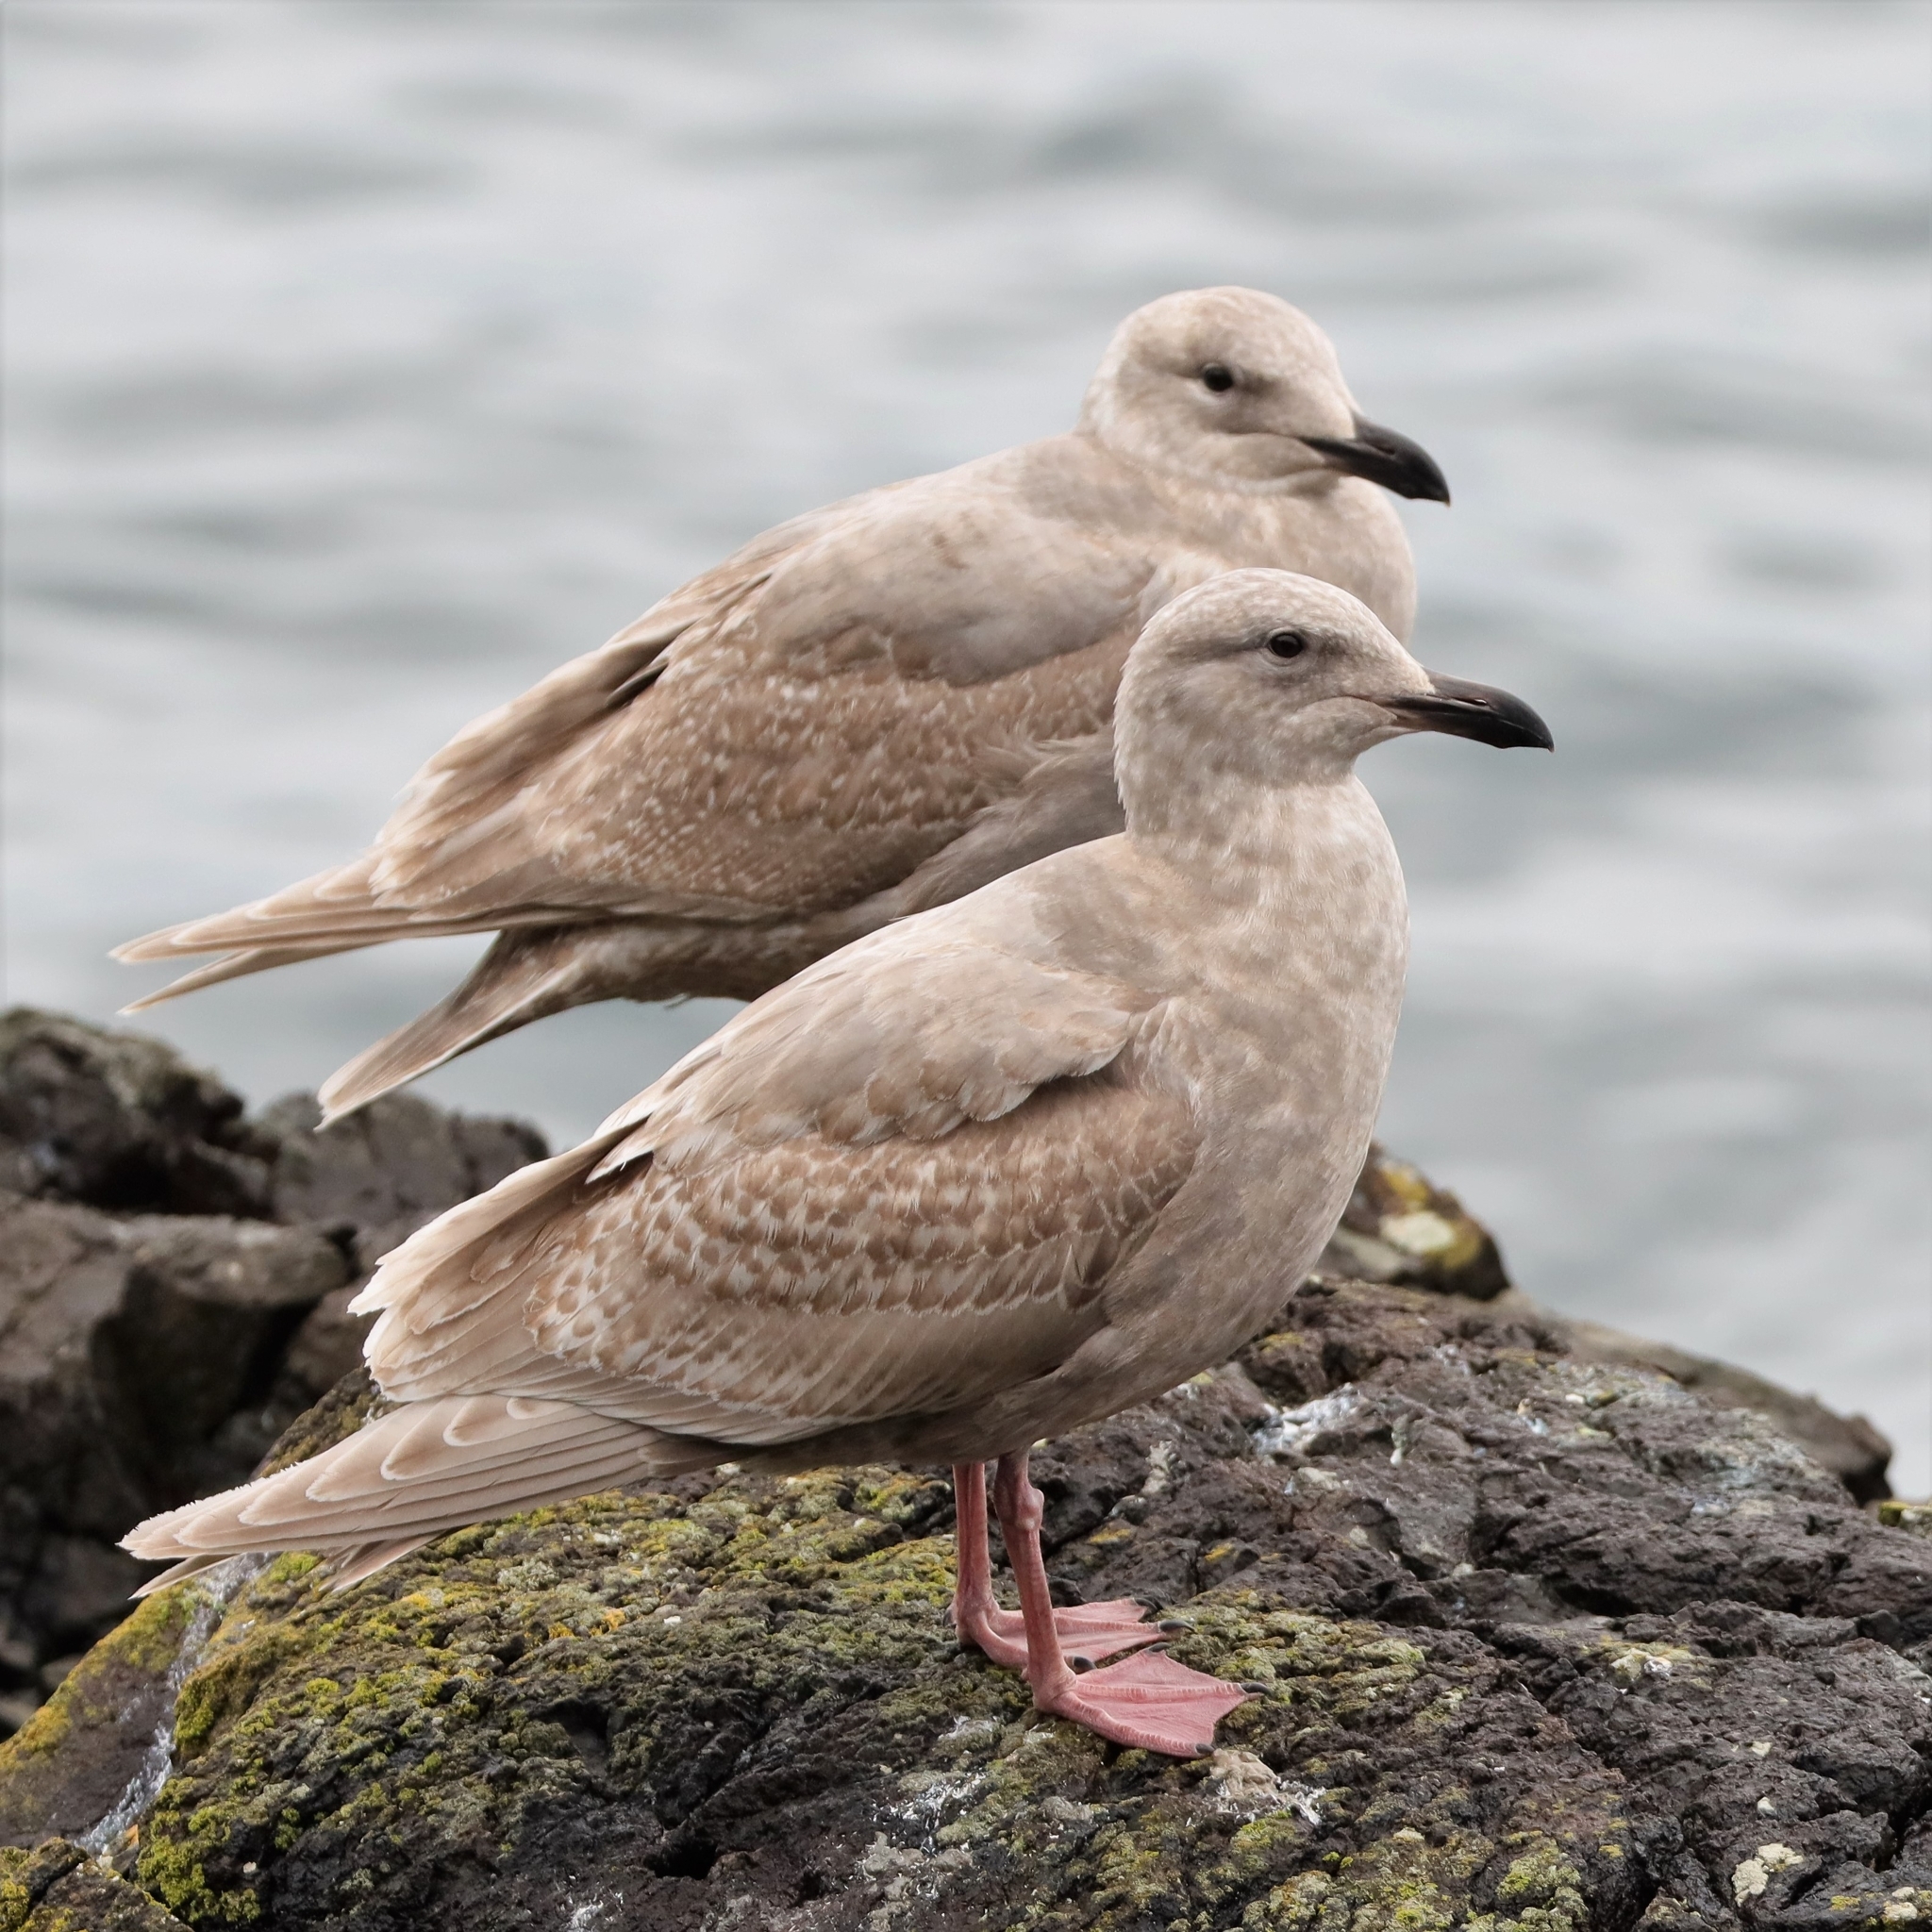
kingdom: Animalia
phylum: Chordata
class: Aves
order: Charadriiformes
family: Laridae
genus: Larus
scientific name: Larus
